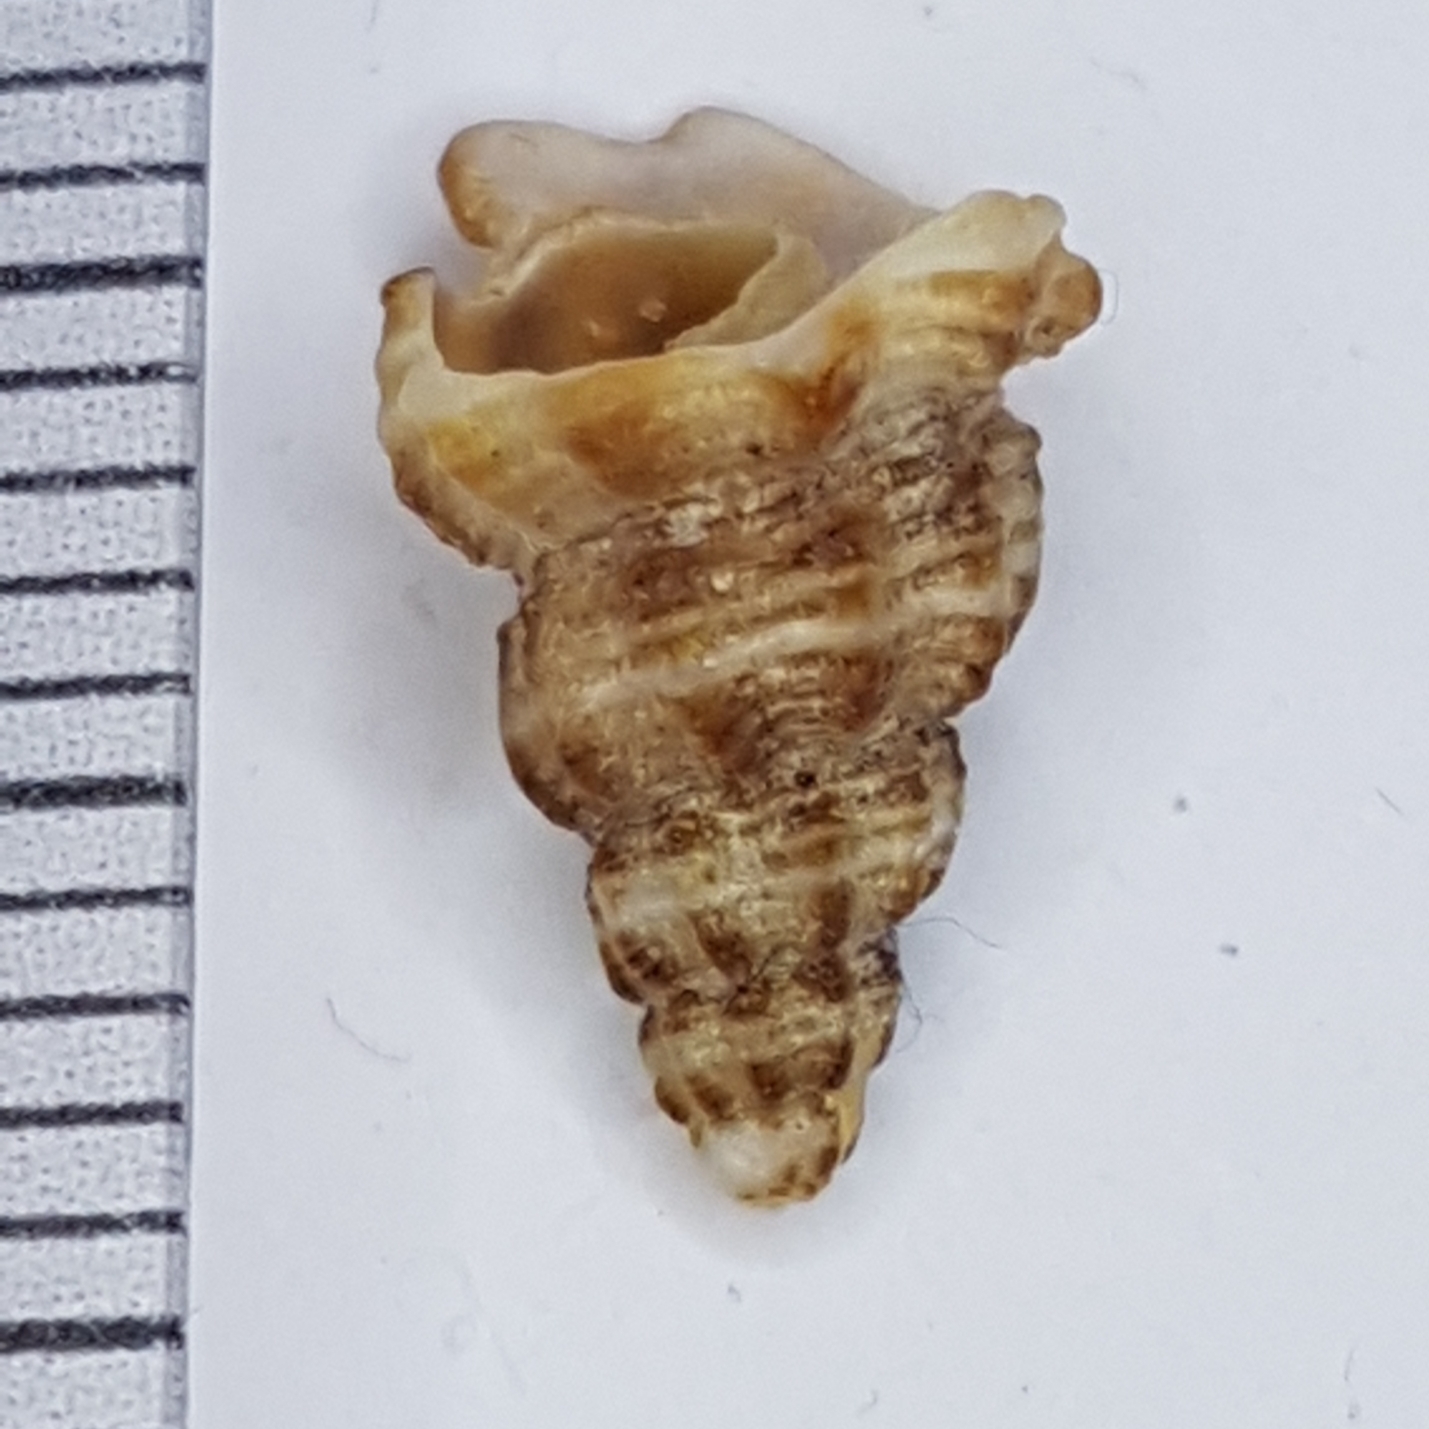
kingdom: Animalia
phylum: Mollusca
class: Gastropoda
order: Neogastropoda
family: Fasciolariidae
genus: Pseudofusus
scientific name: Pseudofusus pulchellus
